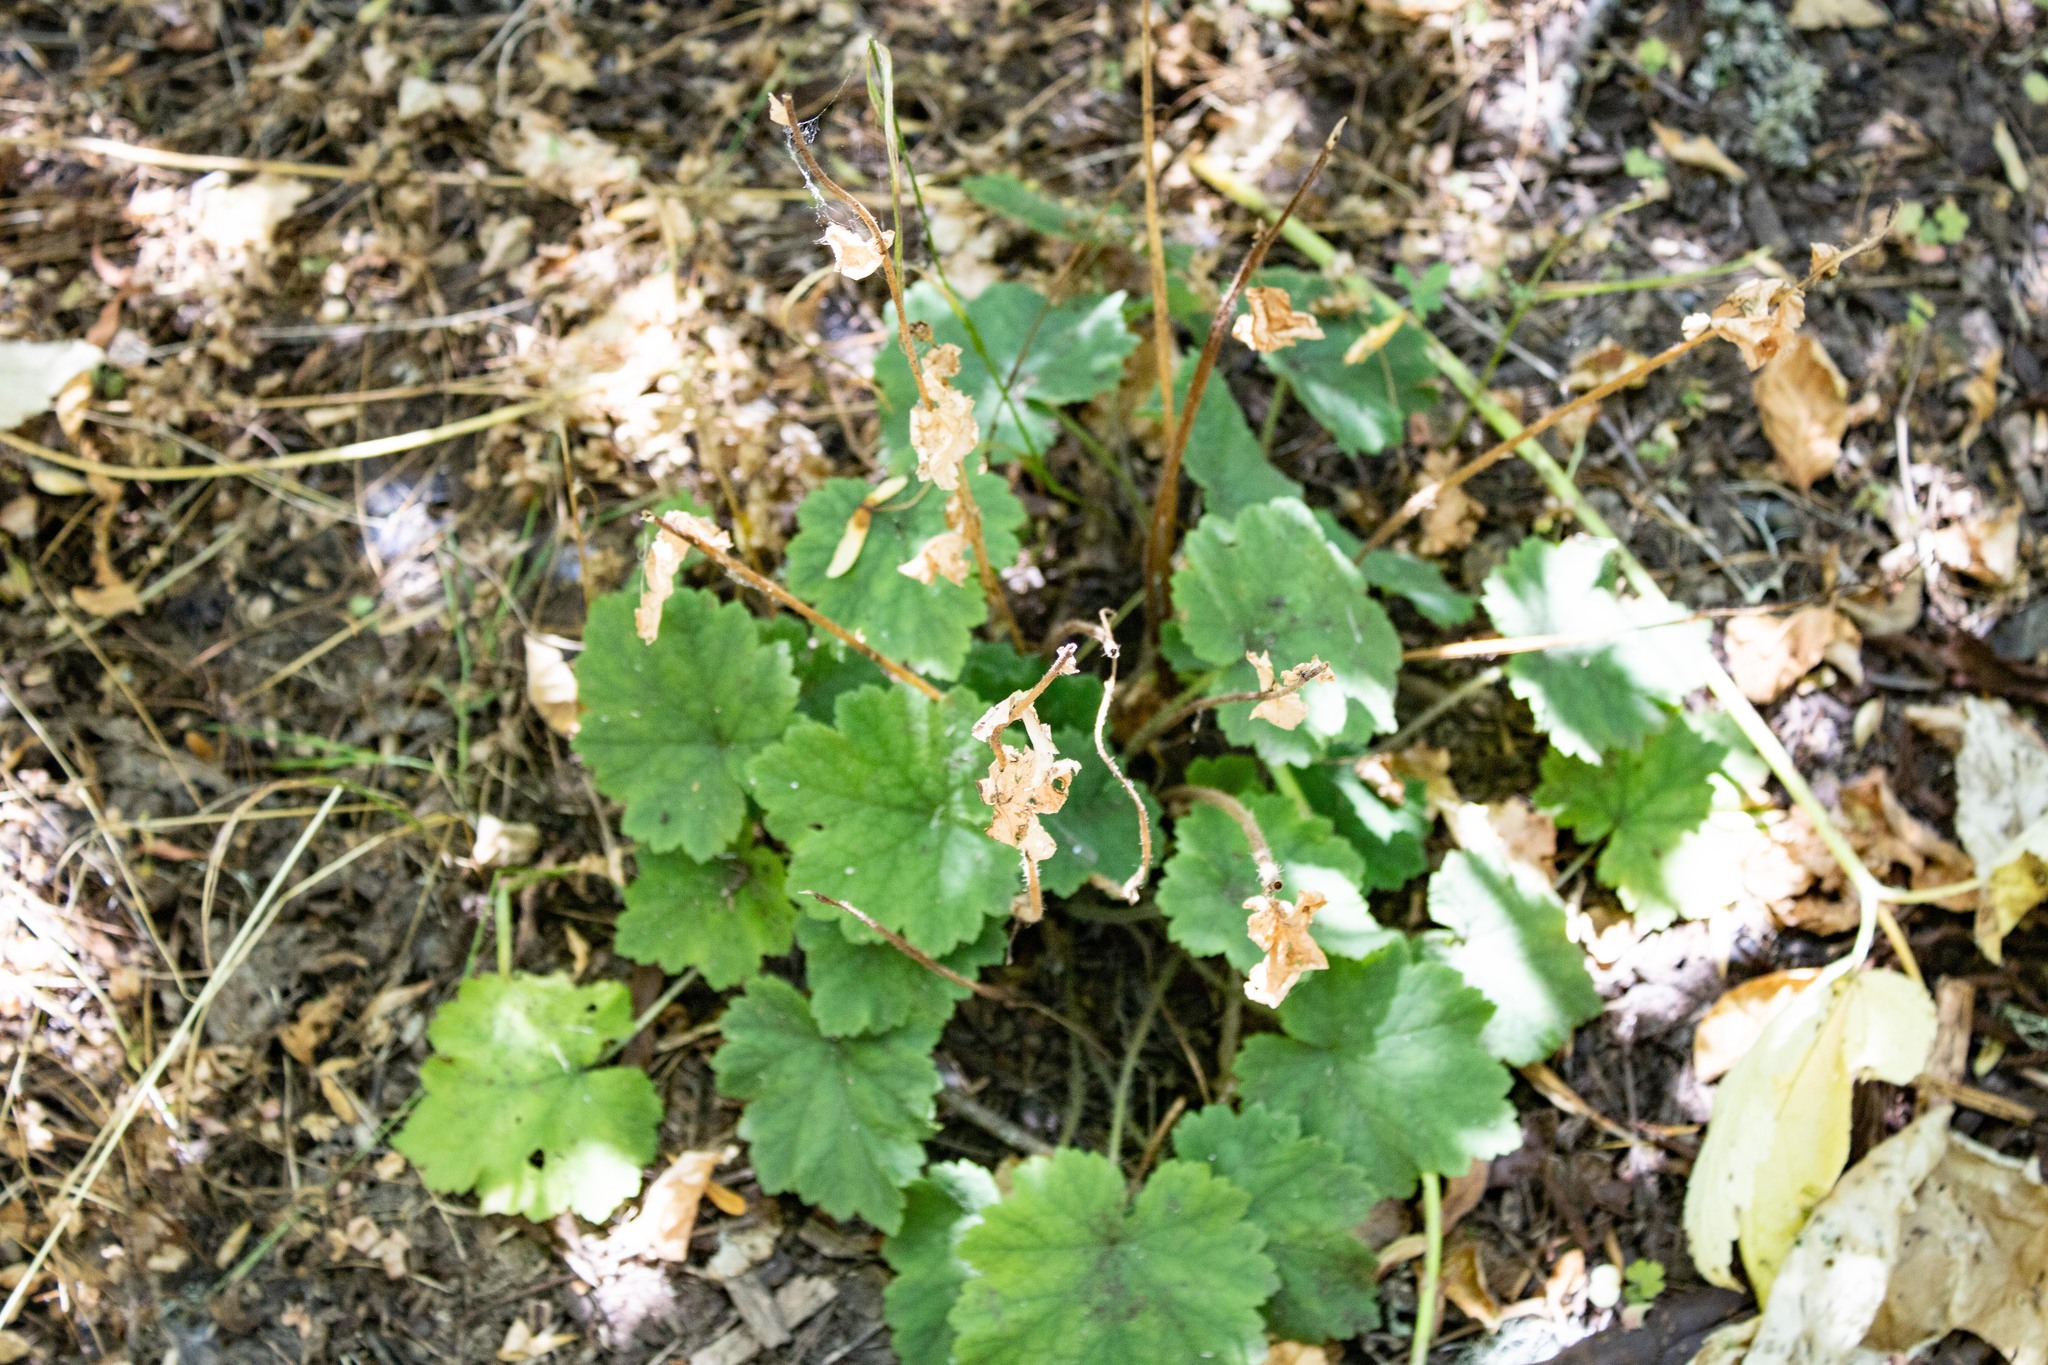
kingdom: Plantae
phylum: Tracheophyta
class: Magnoliopsida
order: Saxifragales
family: Saxifragaceae
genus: Tellima
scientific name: Tellima grandiflora
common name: Fringecups
